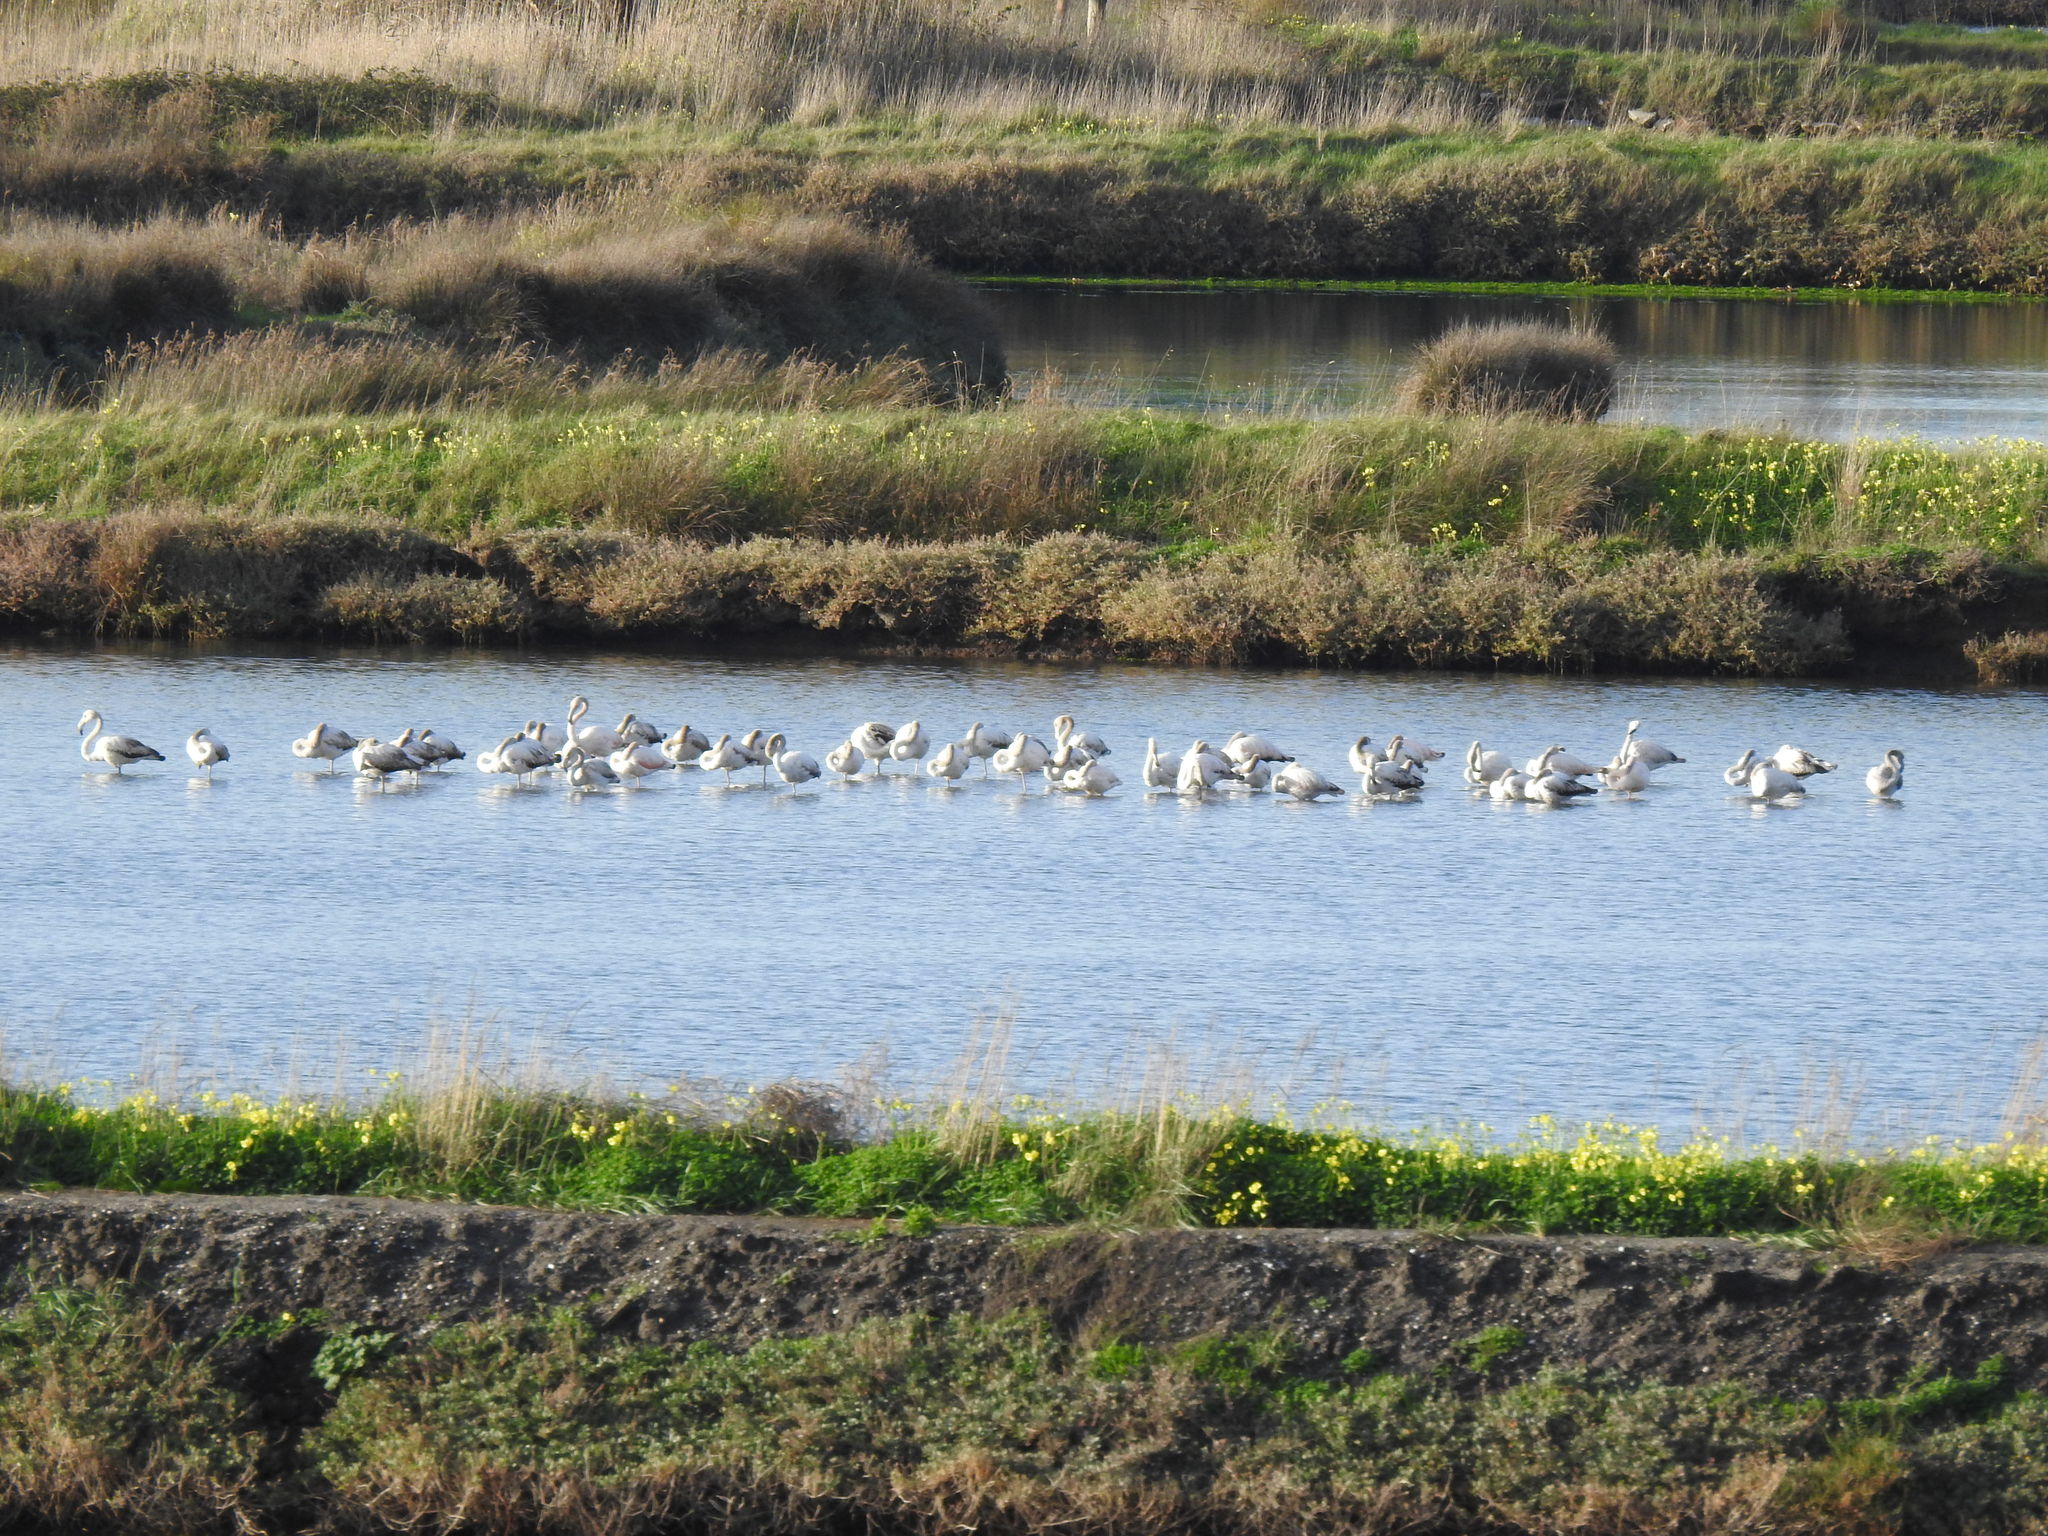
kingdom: Animalia
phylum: Chordata
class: Aves
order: Phoenicopteriformes
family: Phoenicopteridae
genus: Phoenicopterus
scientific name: Phoenicopterus roseus
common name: Greater flamingo
